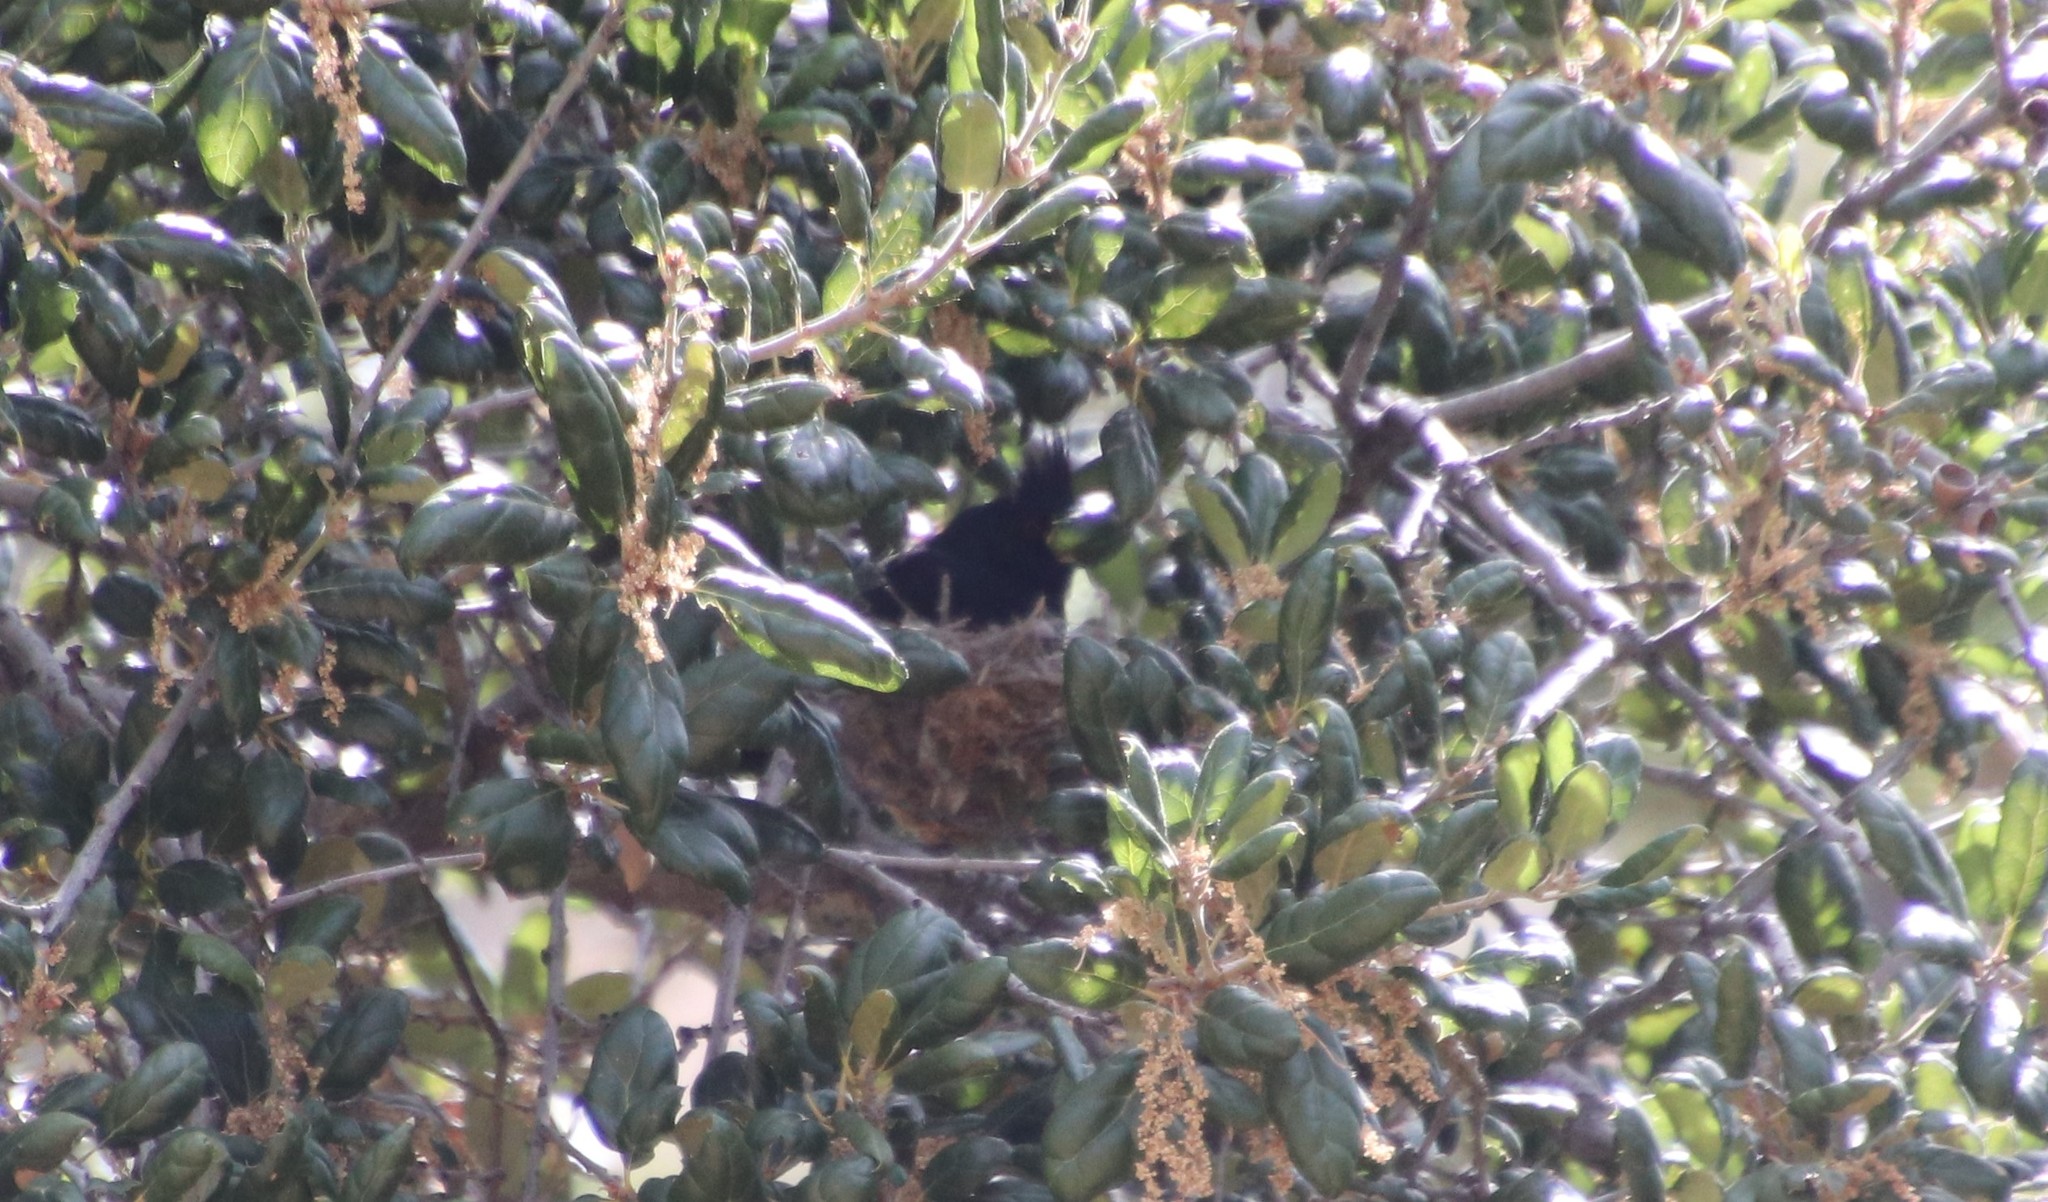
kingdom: Animalia
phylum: Chordata
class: Aves
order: Passeriformes
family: Ptilogonatidae
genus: Phainopepla
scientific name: Phainopepla nitens
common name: Phainopepla
